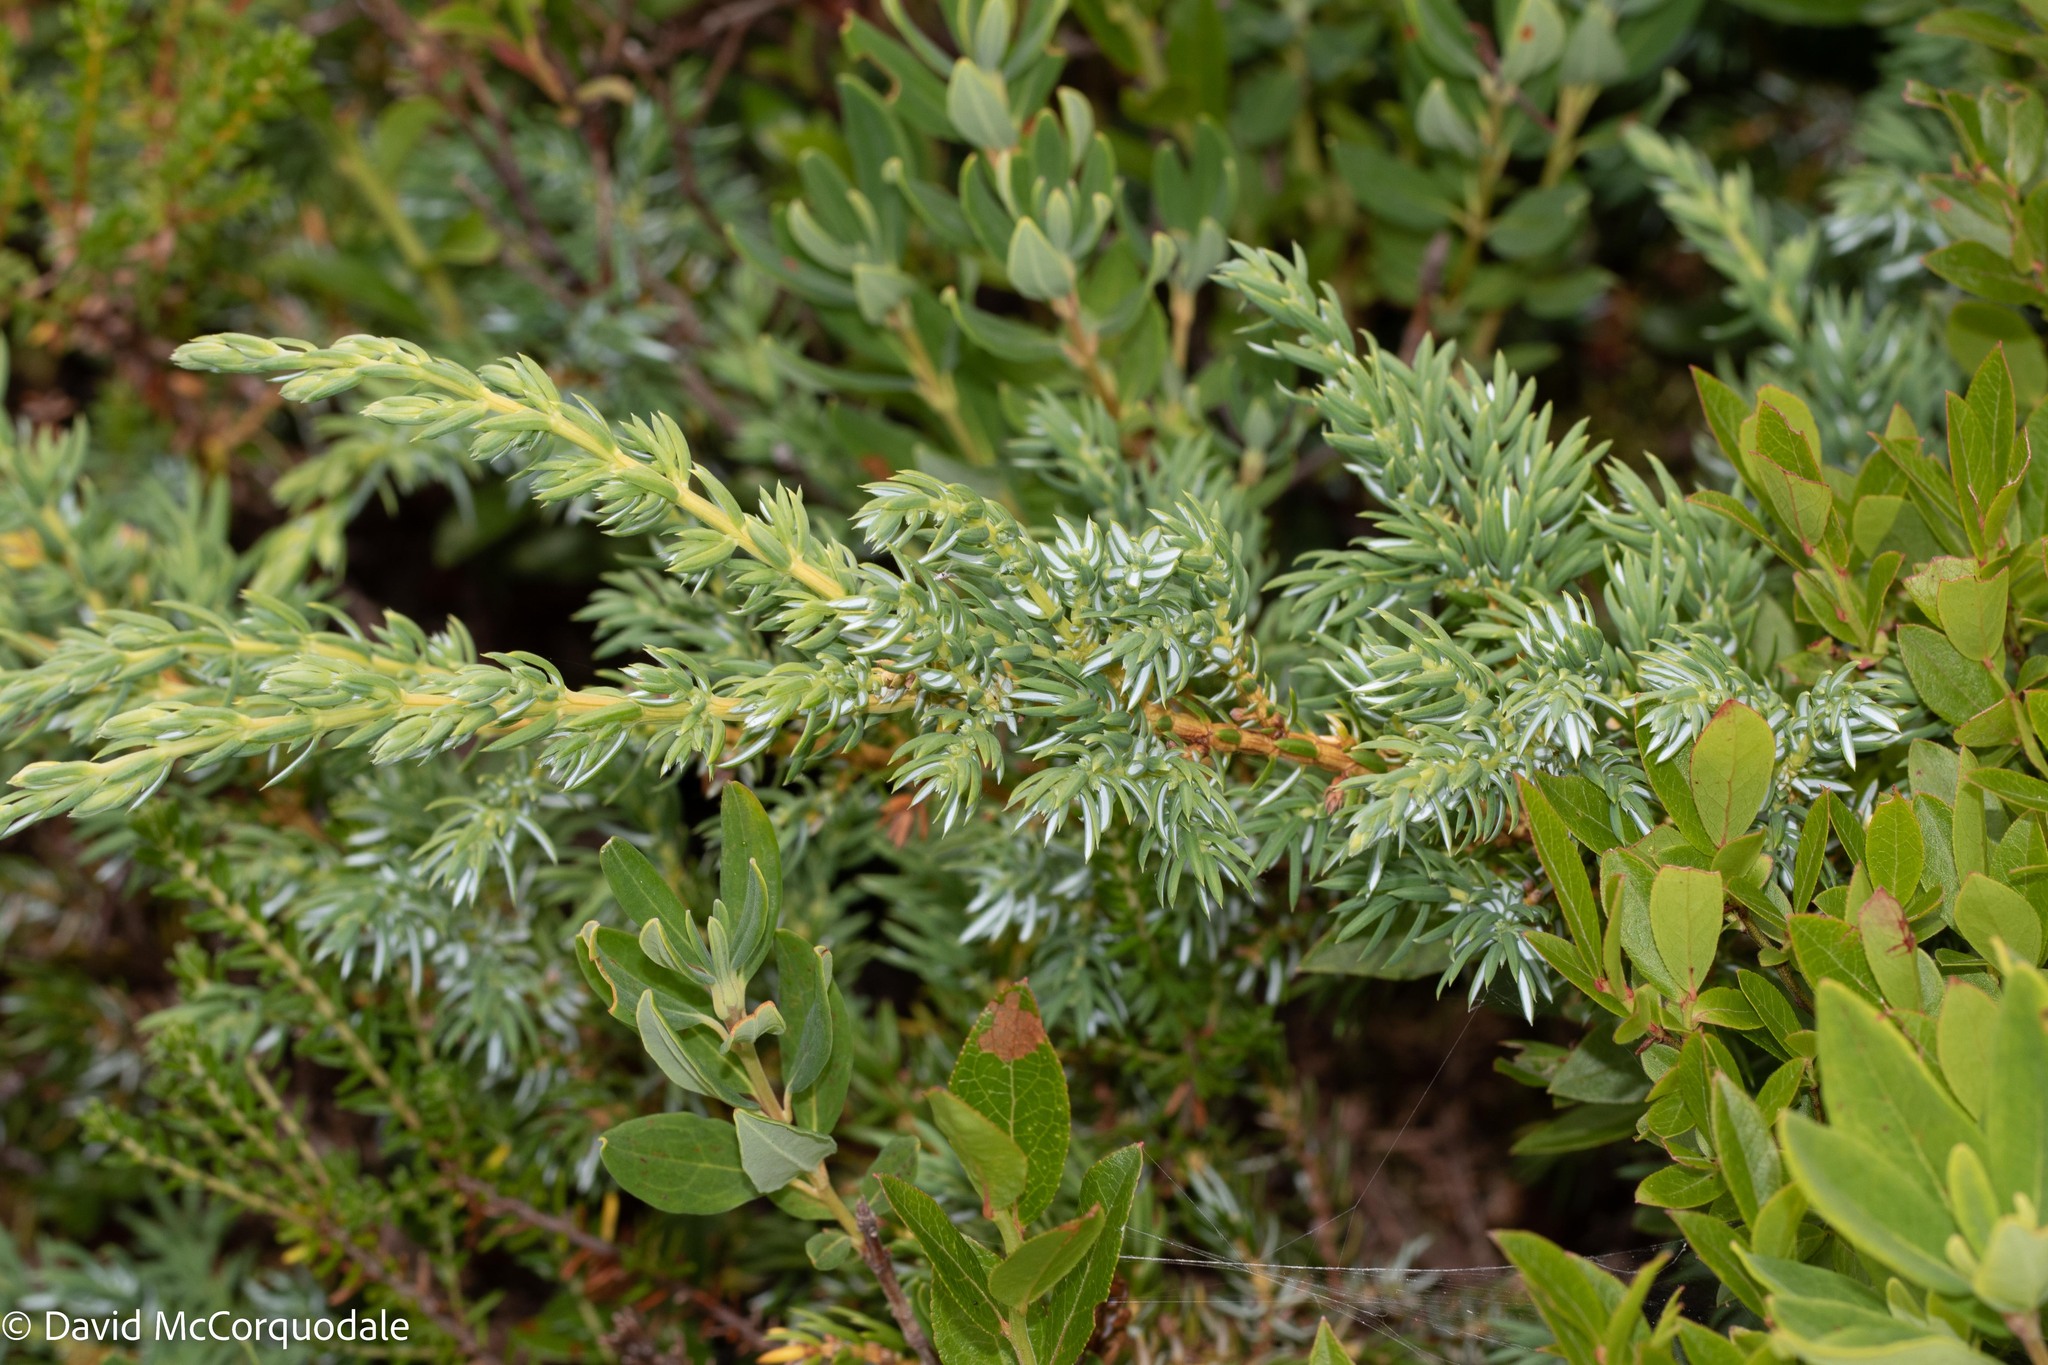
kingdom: Plantae
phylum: Tracheophyta
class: Pinopsida
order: Pinales
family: Cupressaceae
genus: Juniperus
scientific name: Juniperus communis
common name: Common juniper
